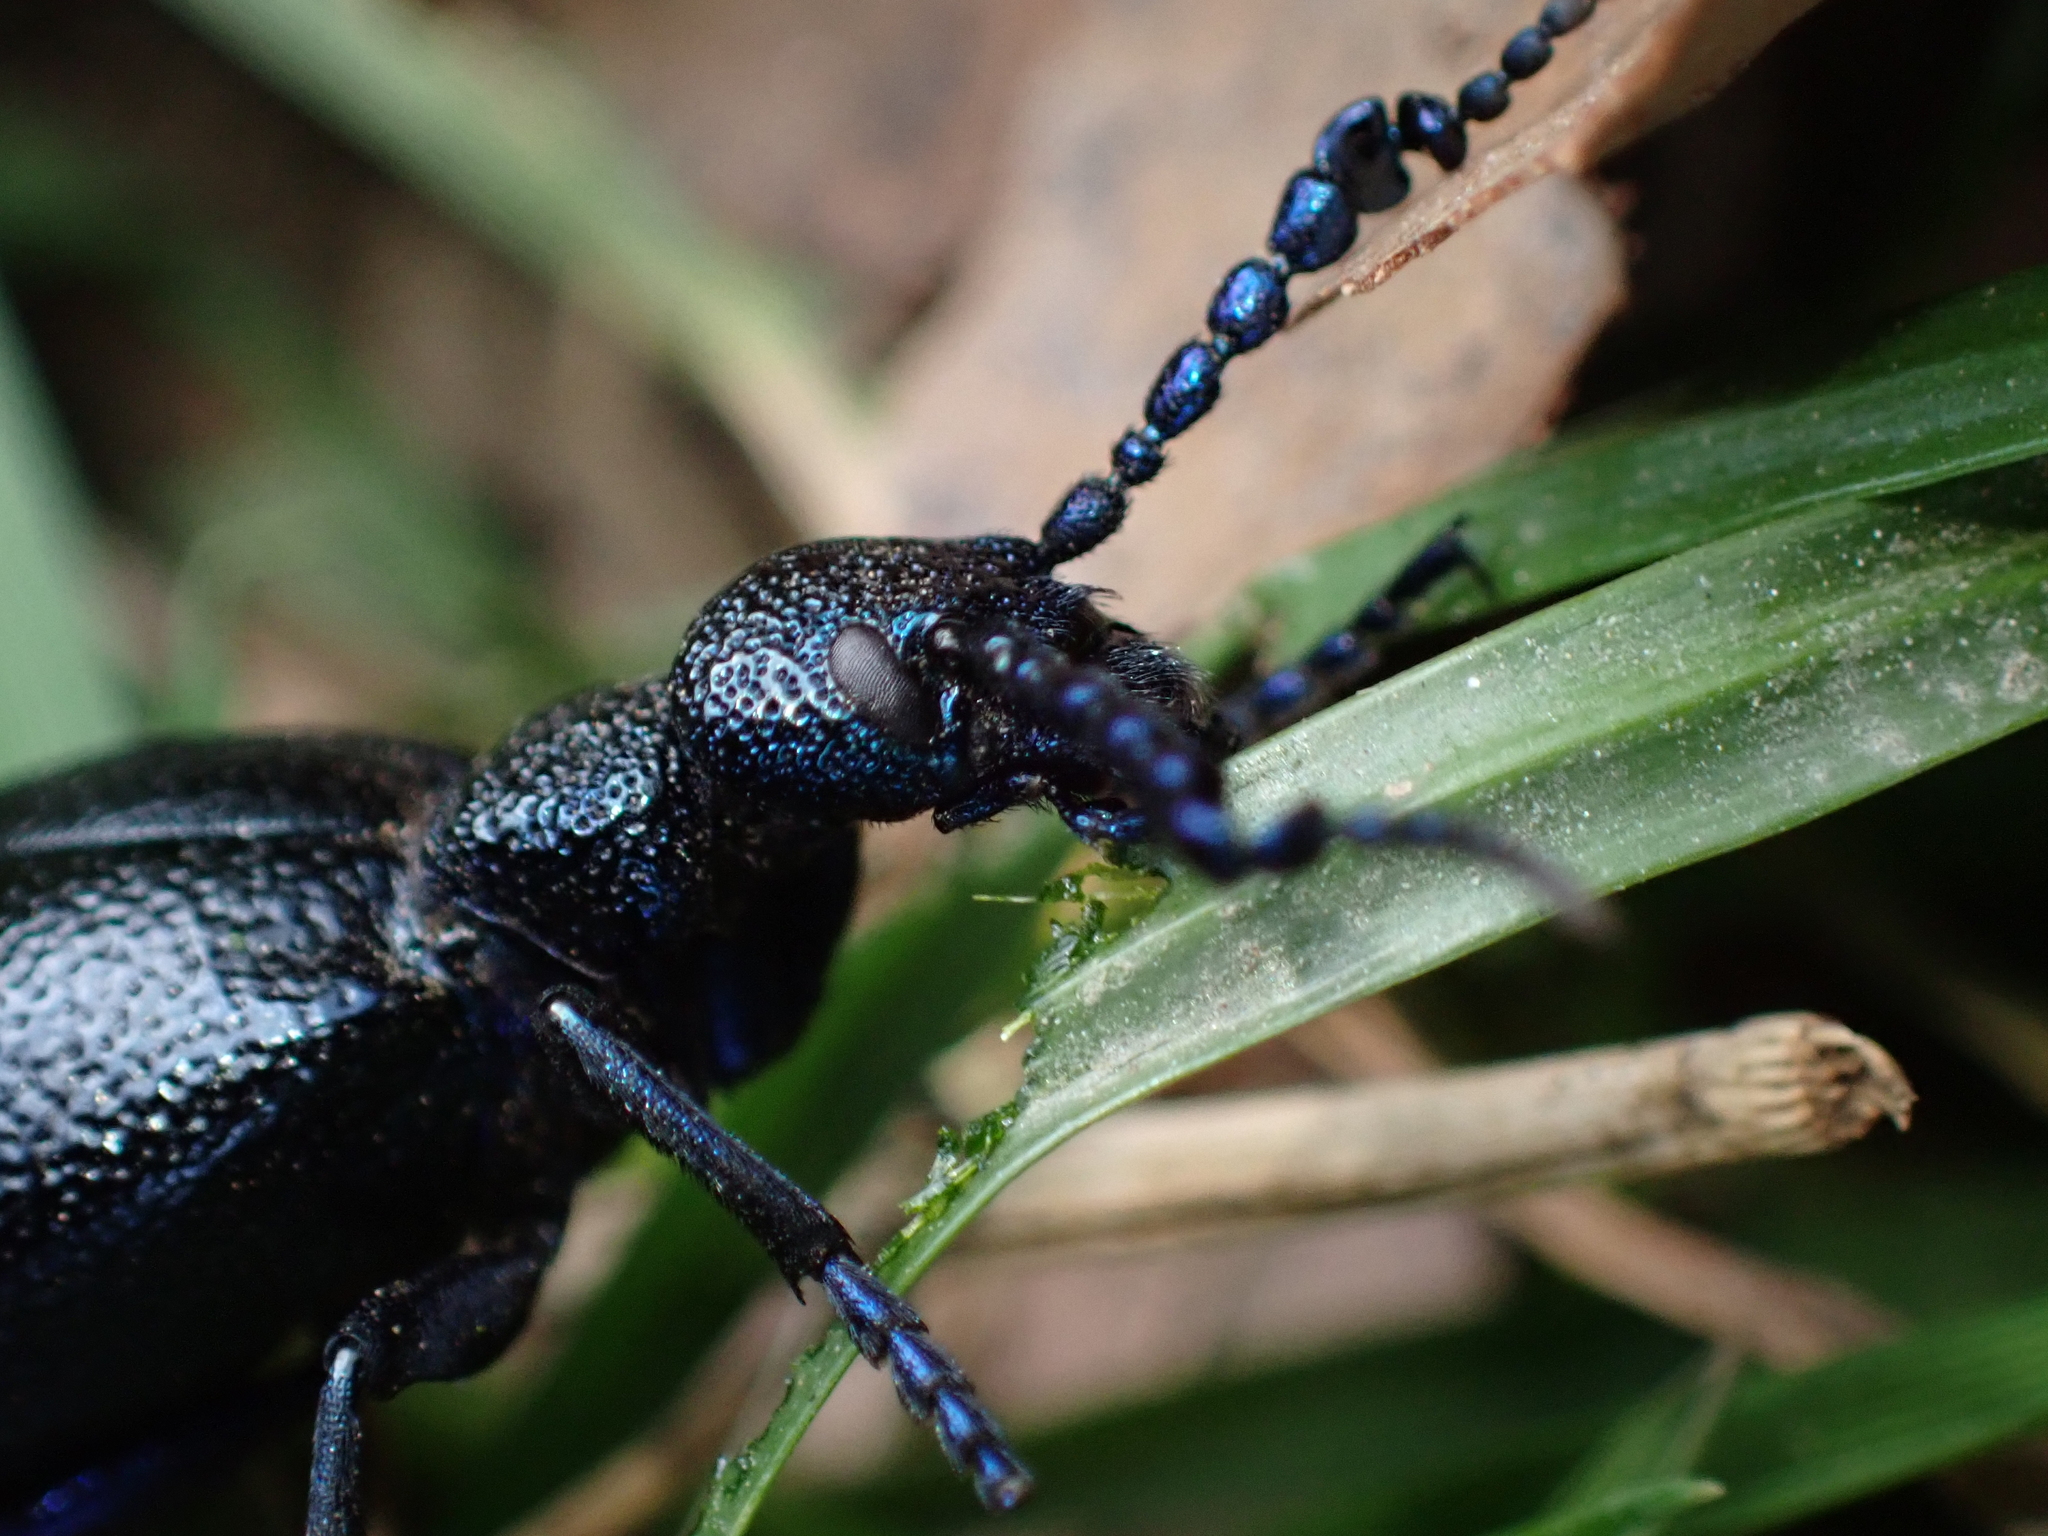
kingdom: Animalia
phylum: Arthropoda
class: Insecta
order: Coleoptera
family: Meloidae
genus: Meloe
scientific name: Meloe proscarabaeus
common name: Black oil-beetle
